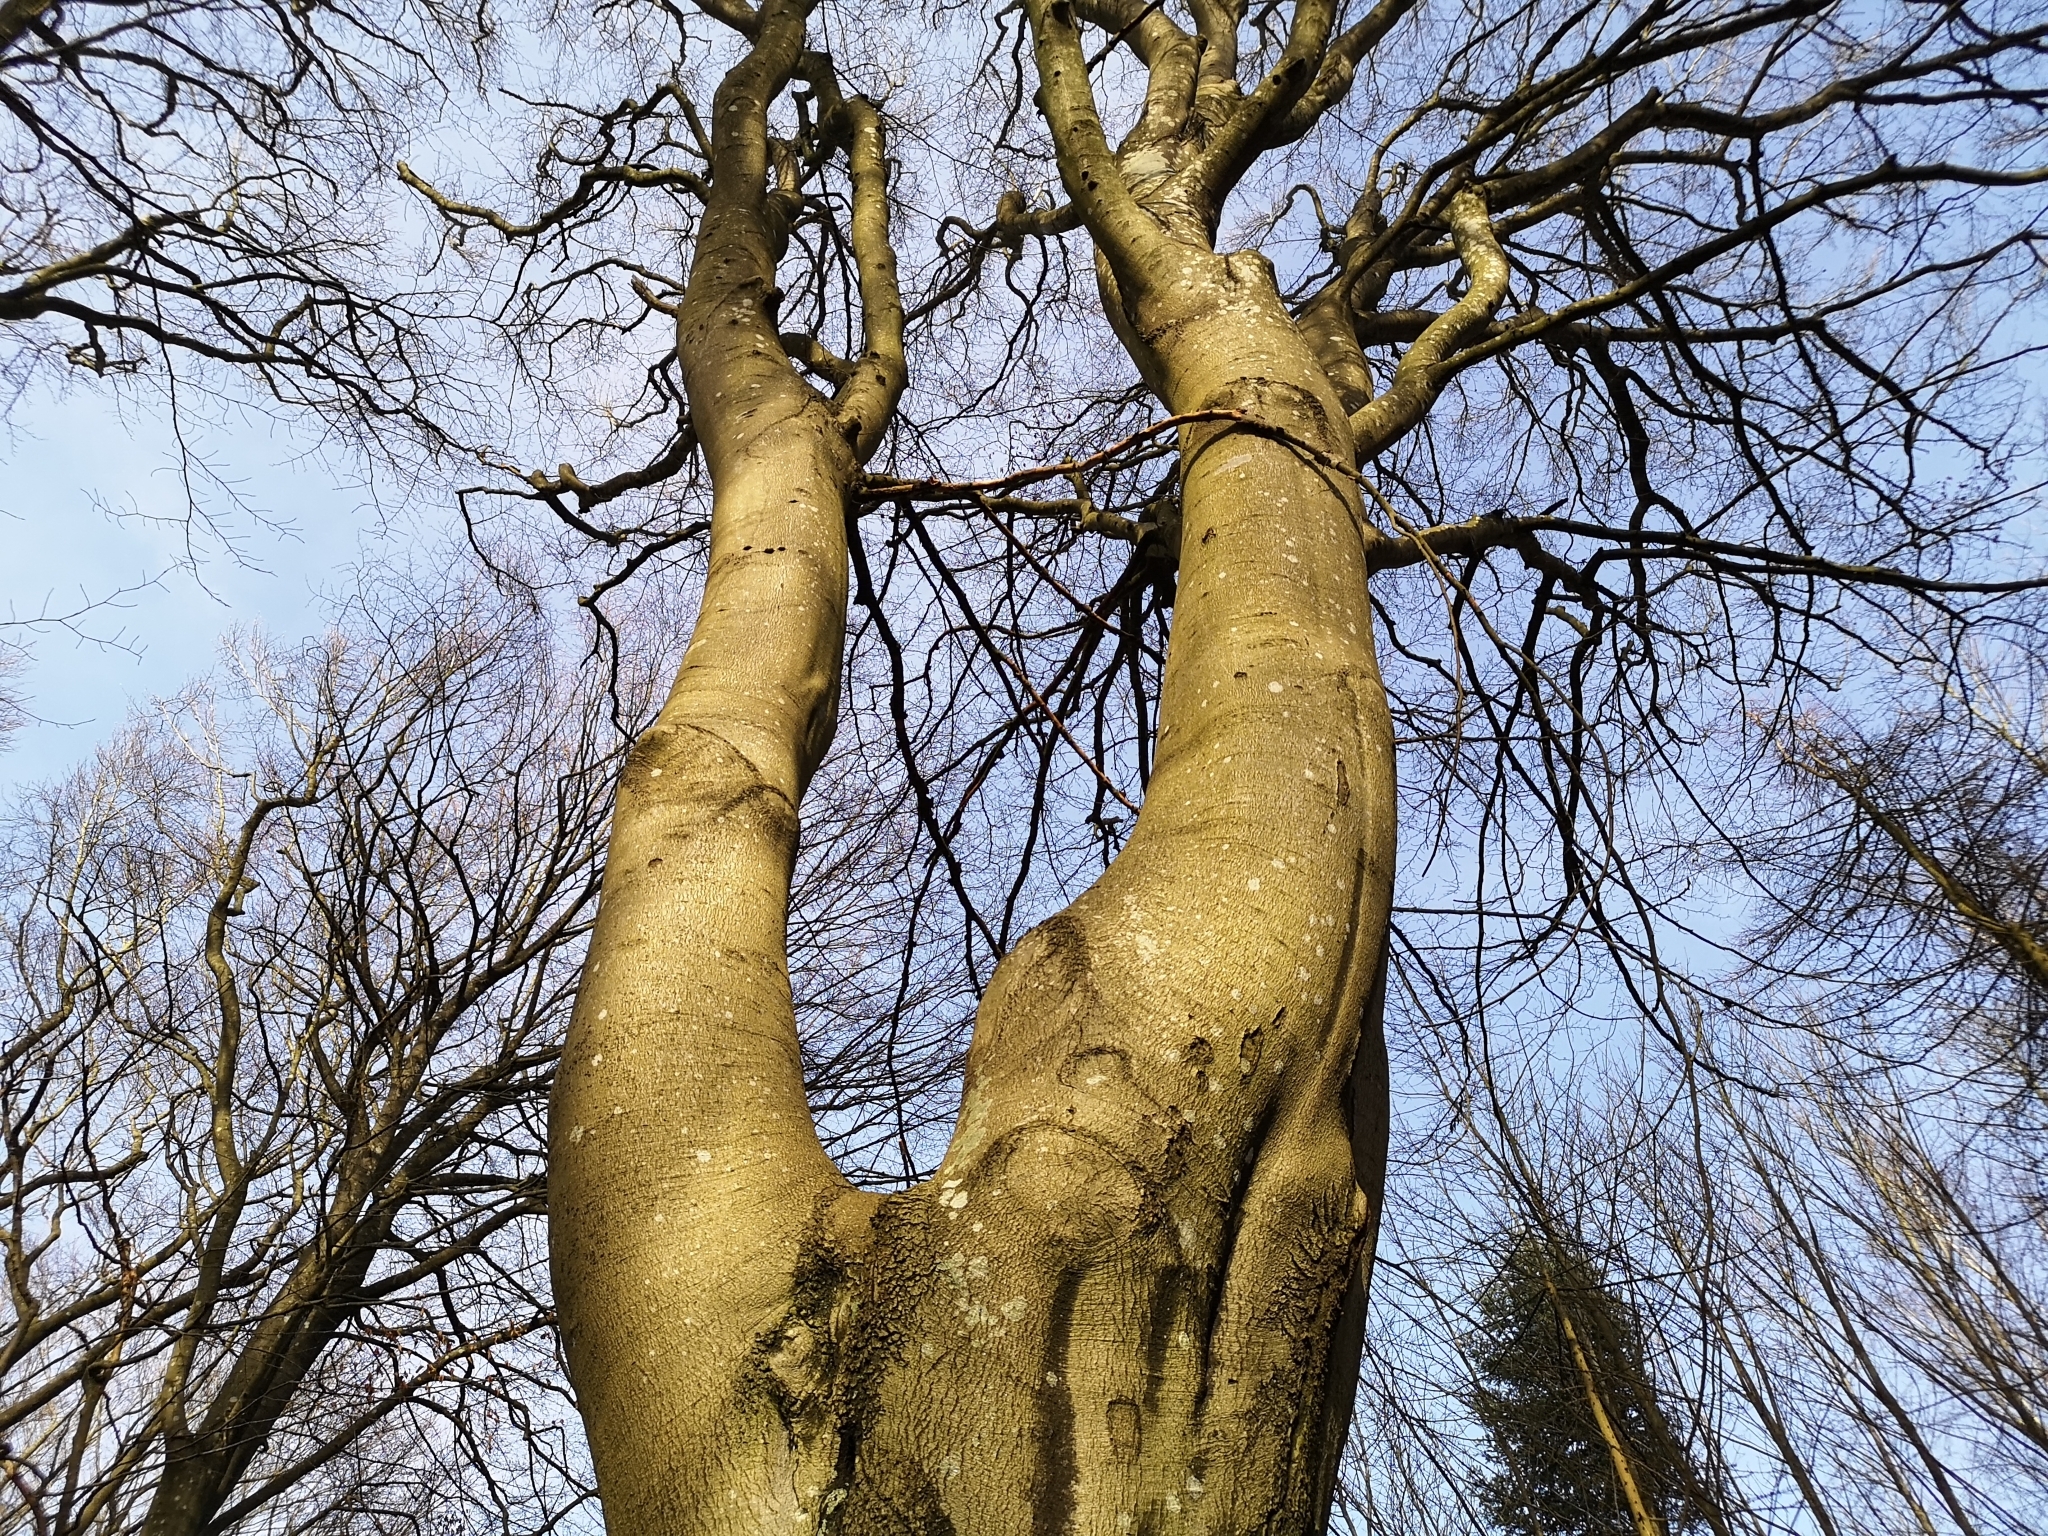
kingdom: Plantae
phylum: Tracheophyta
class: Magnoliopsida
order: Fagales
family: Fagaceae
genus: Fagus
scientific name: Fagus sylvatica
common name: Beech
